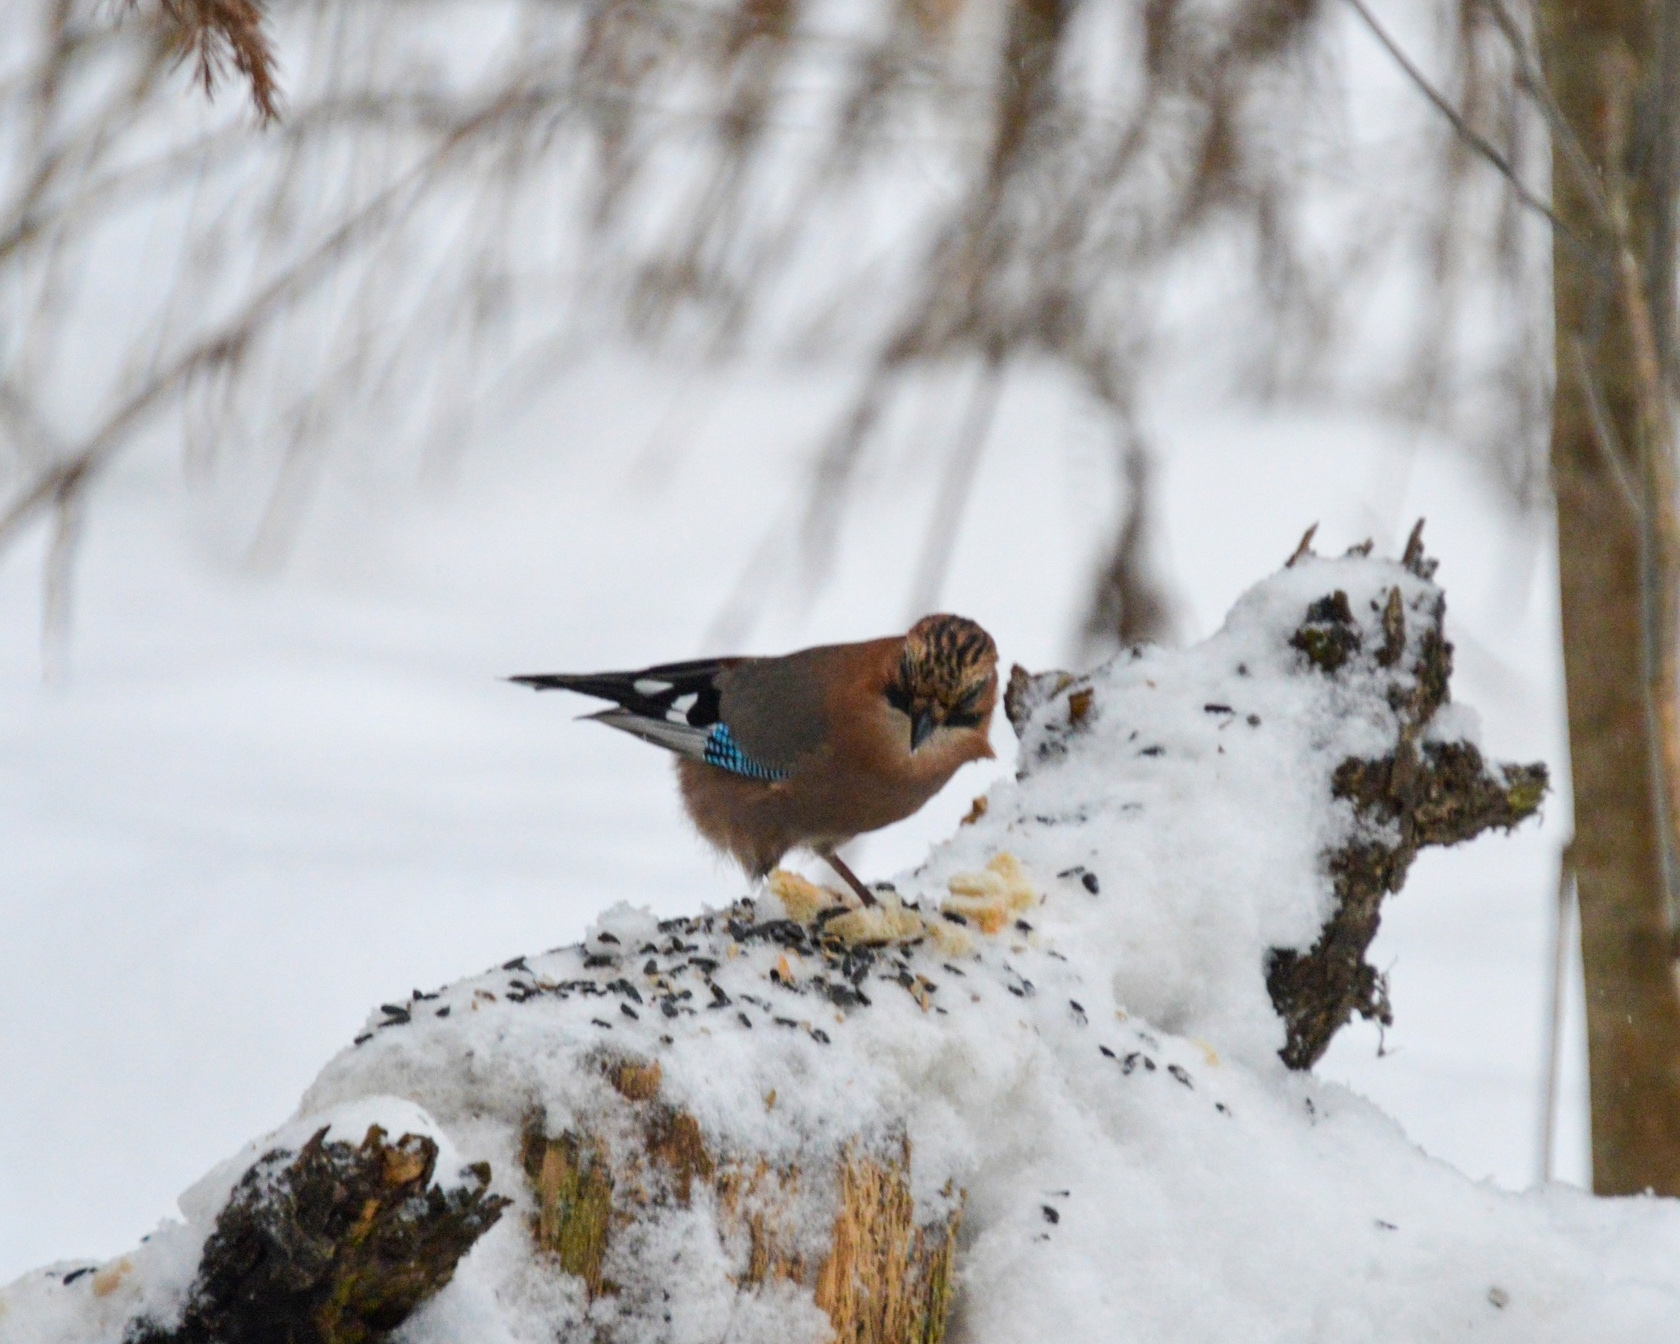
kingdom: Animalia
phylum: Chordata
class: Aves
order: Passeriformes
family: Corvidae
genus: Garrulus
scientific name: Garrulus glandarius
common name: Eurasian jay
